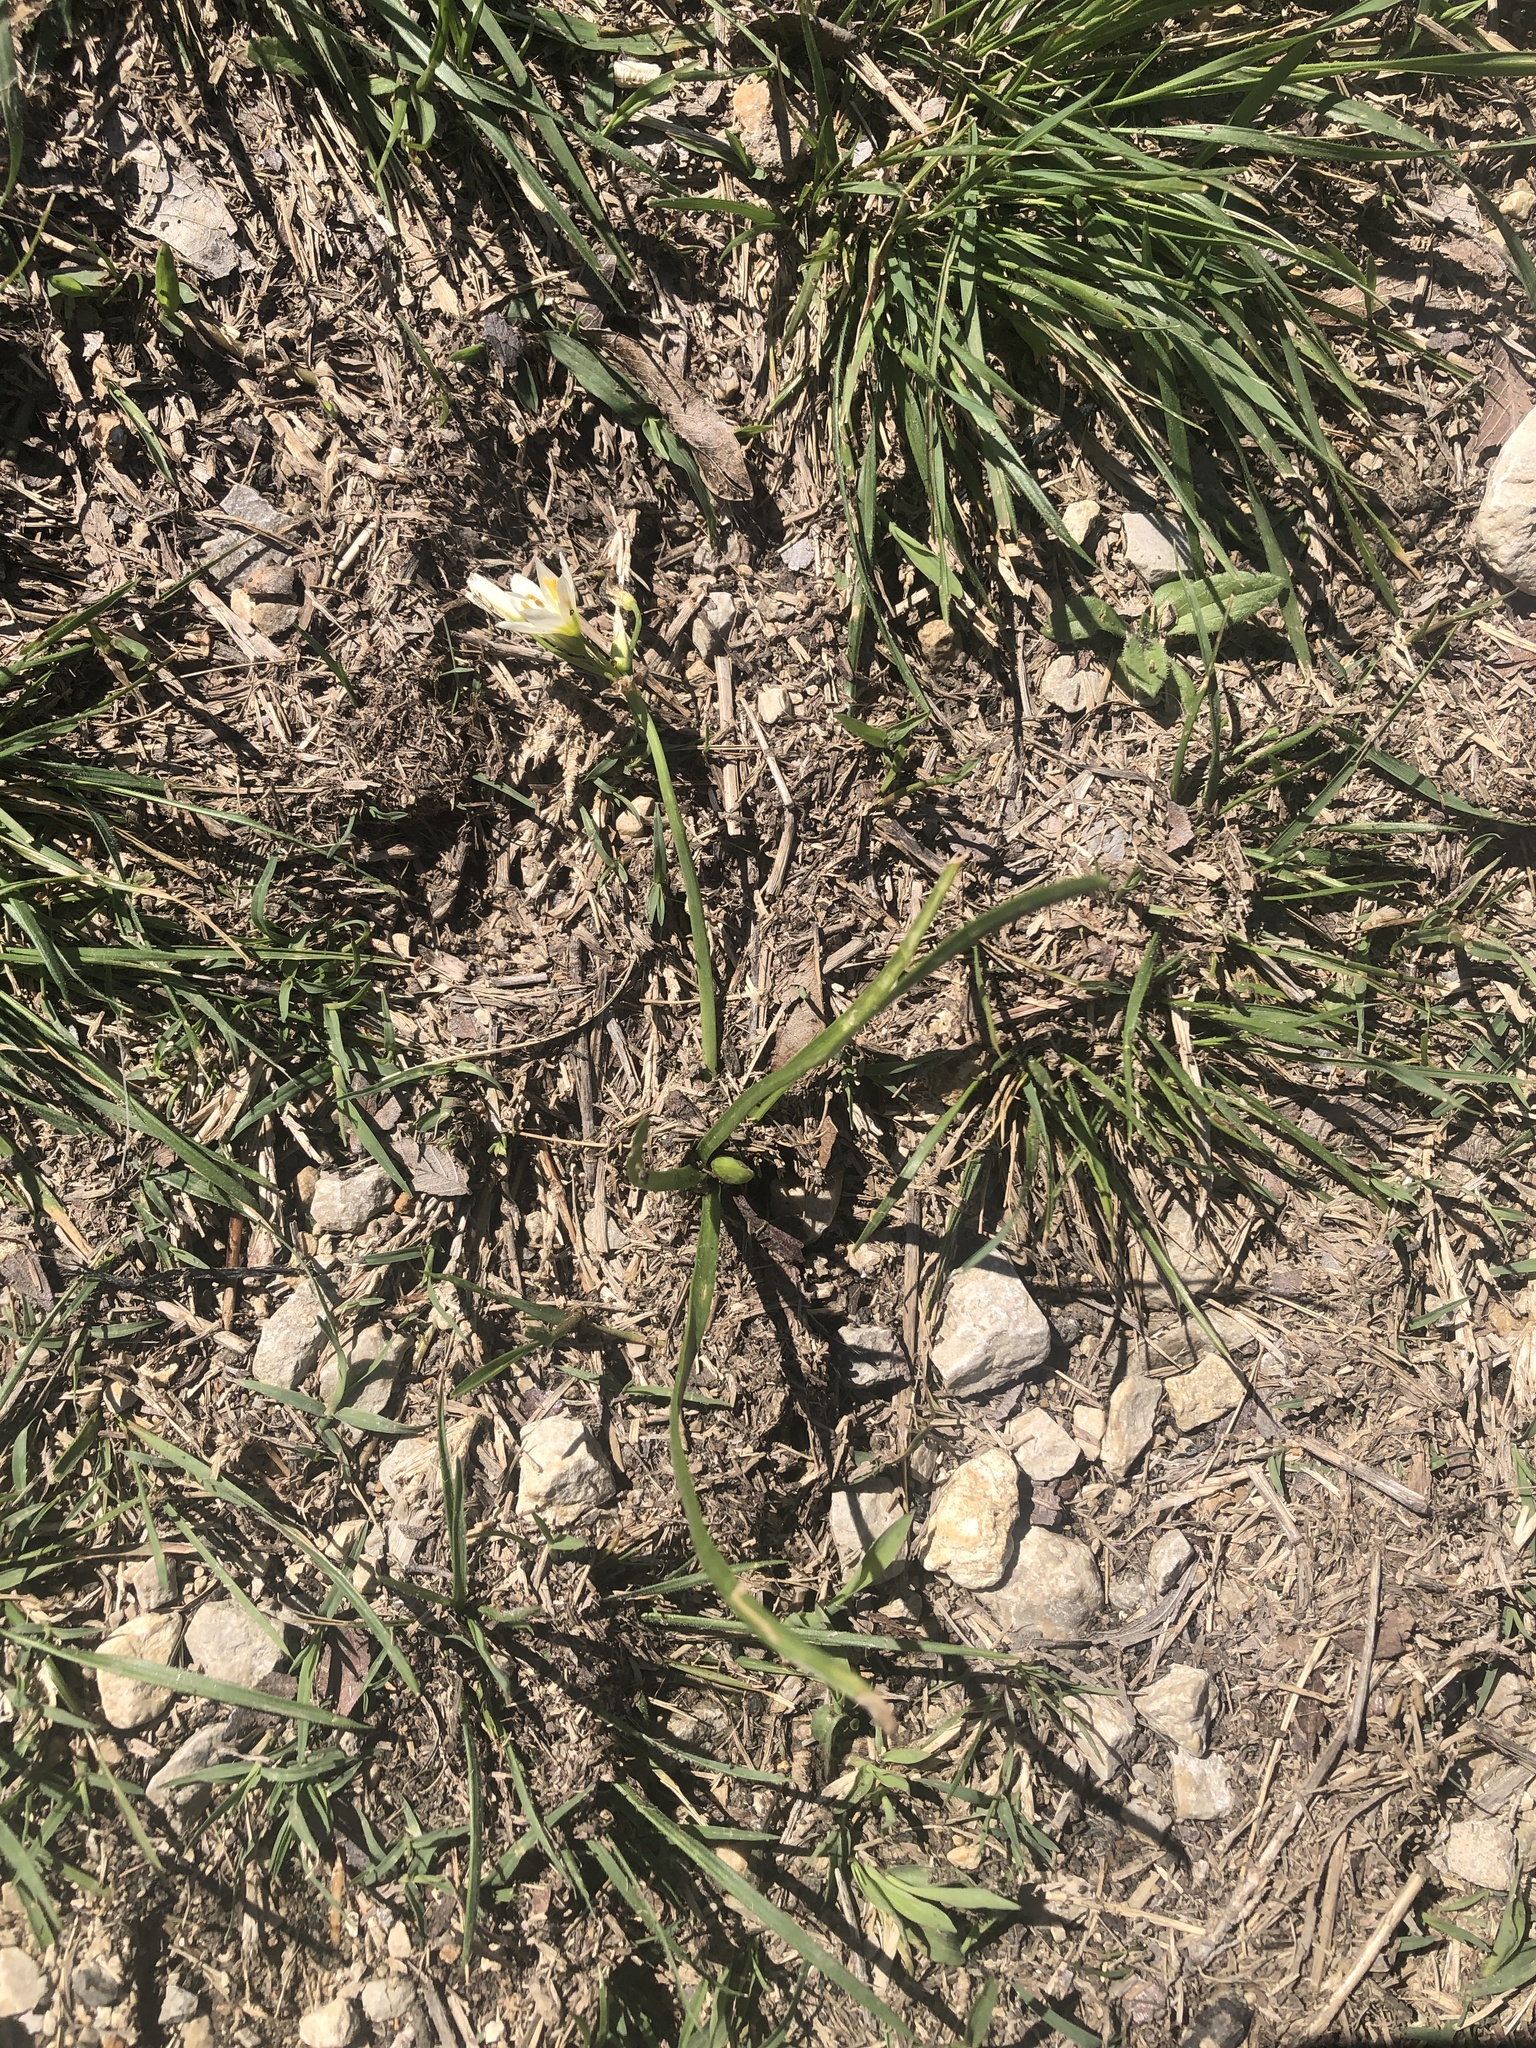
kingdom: Plantae
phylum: Tracheophyta
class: Liliopsida
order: Asparagales
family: Amaryllidaceae
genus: Nothoscordum
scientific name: Nothoscordum bivalve
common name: Crow-poison
